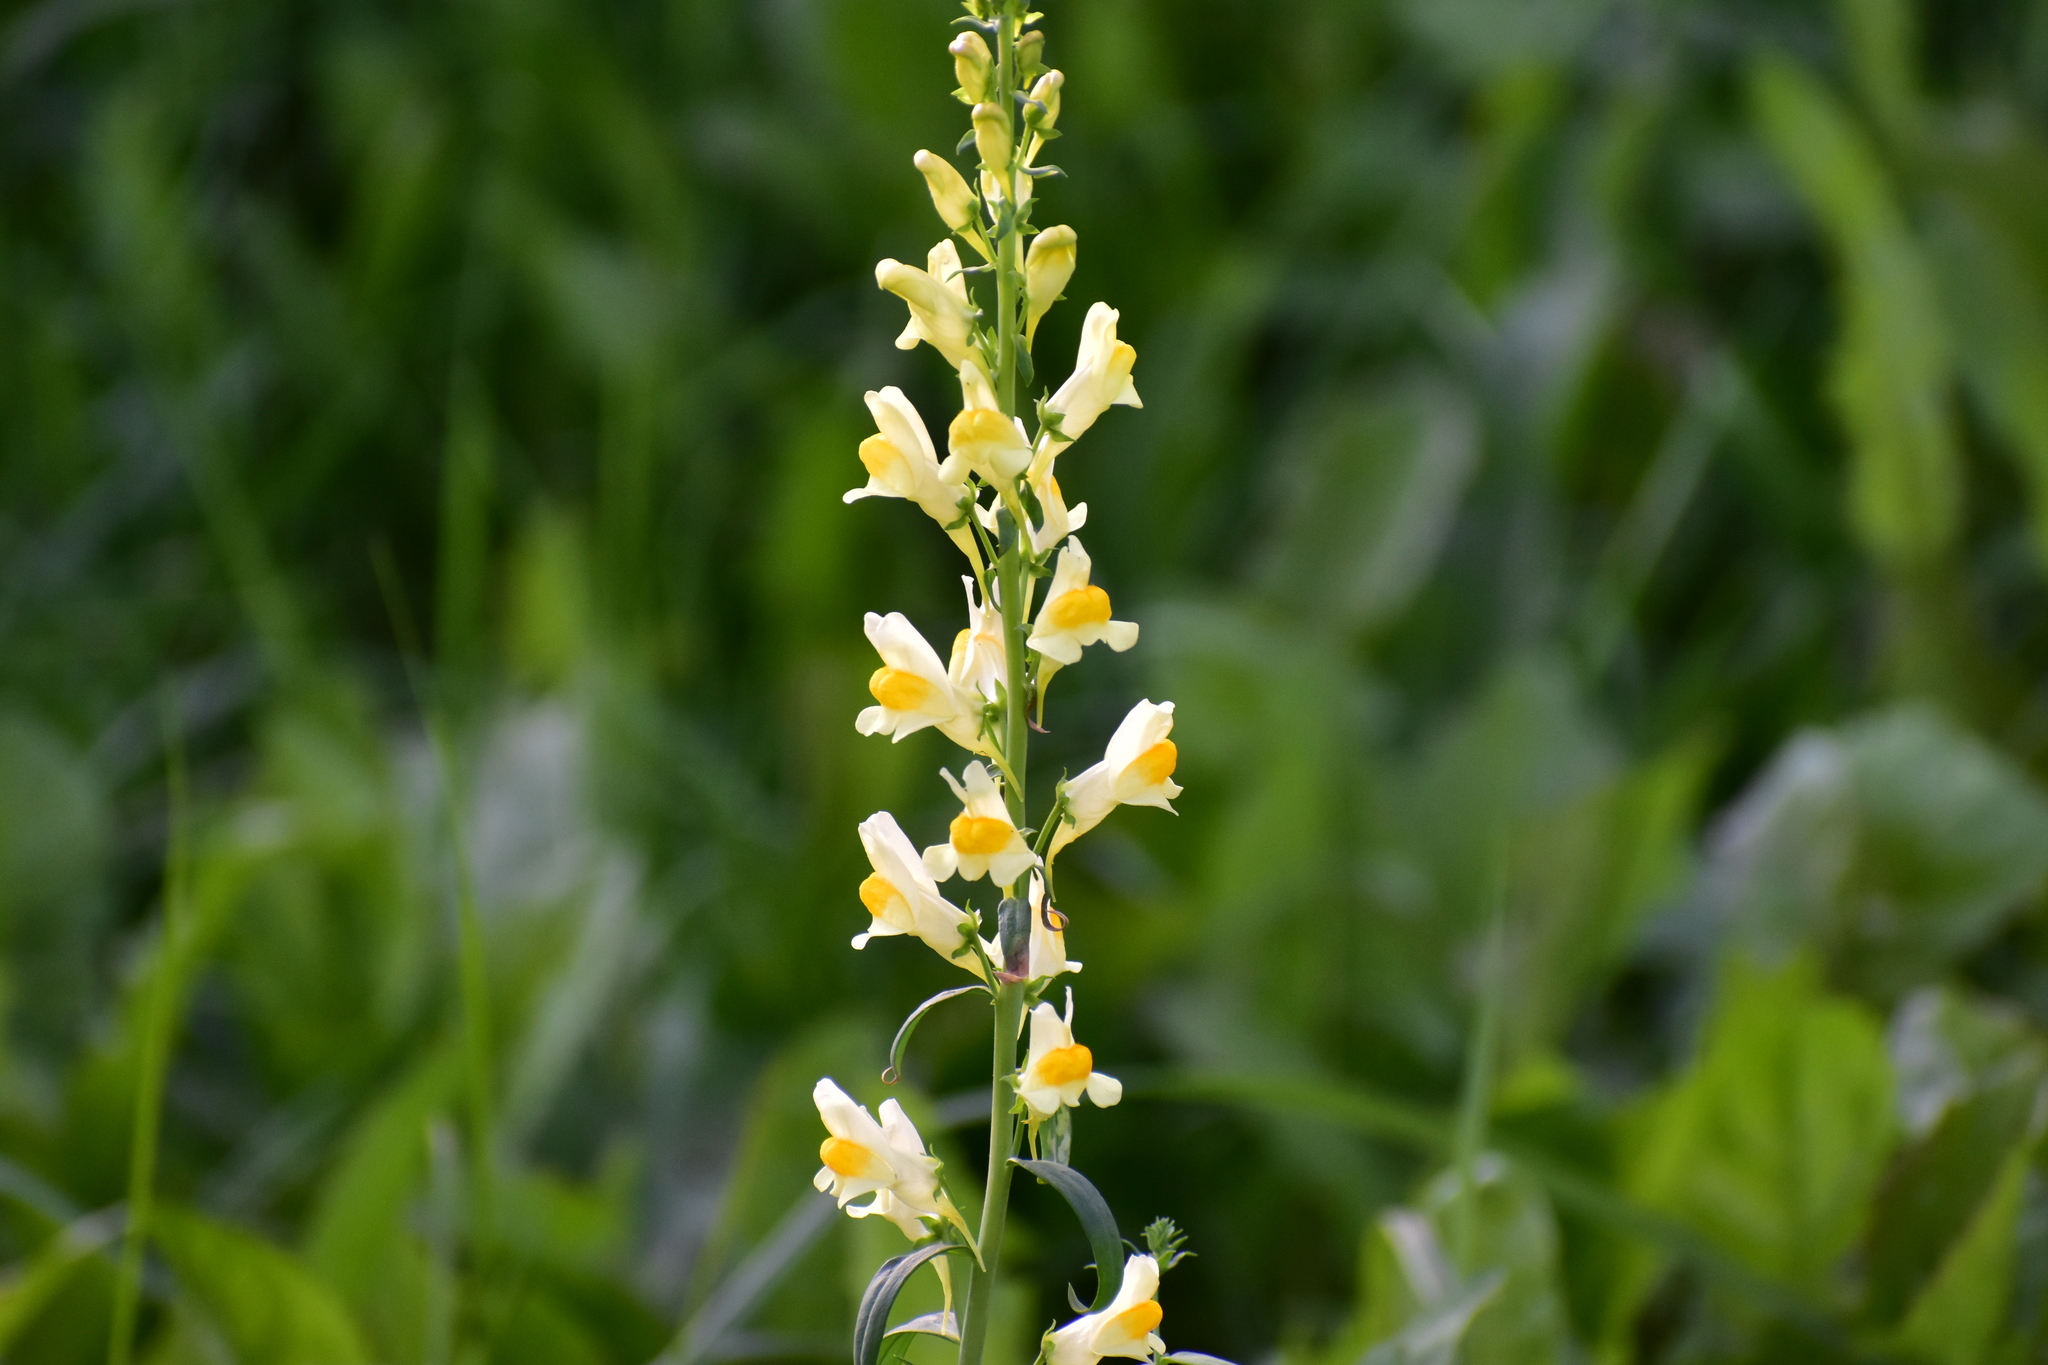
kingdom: Plantae
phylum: Tracheophyta
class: Magnoliopsida
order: Lamiales
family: Plantaginaceae
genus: Linaria
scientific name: Linaria vulgaris
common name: Butter and eggs
